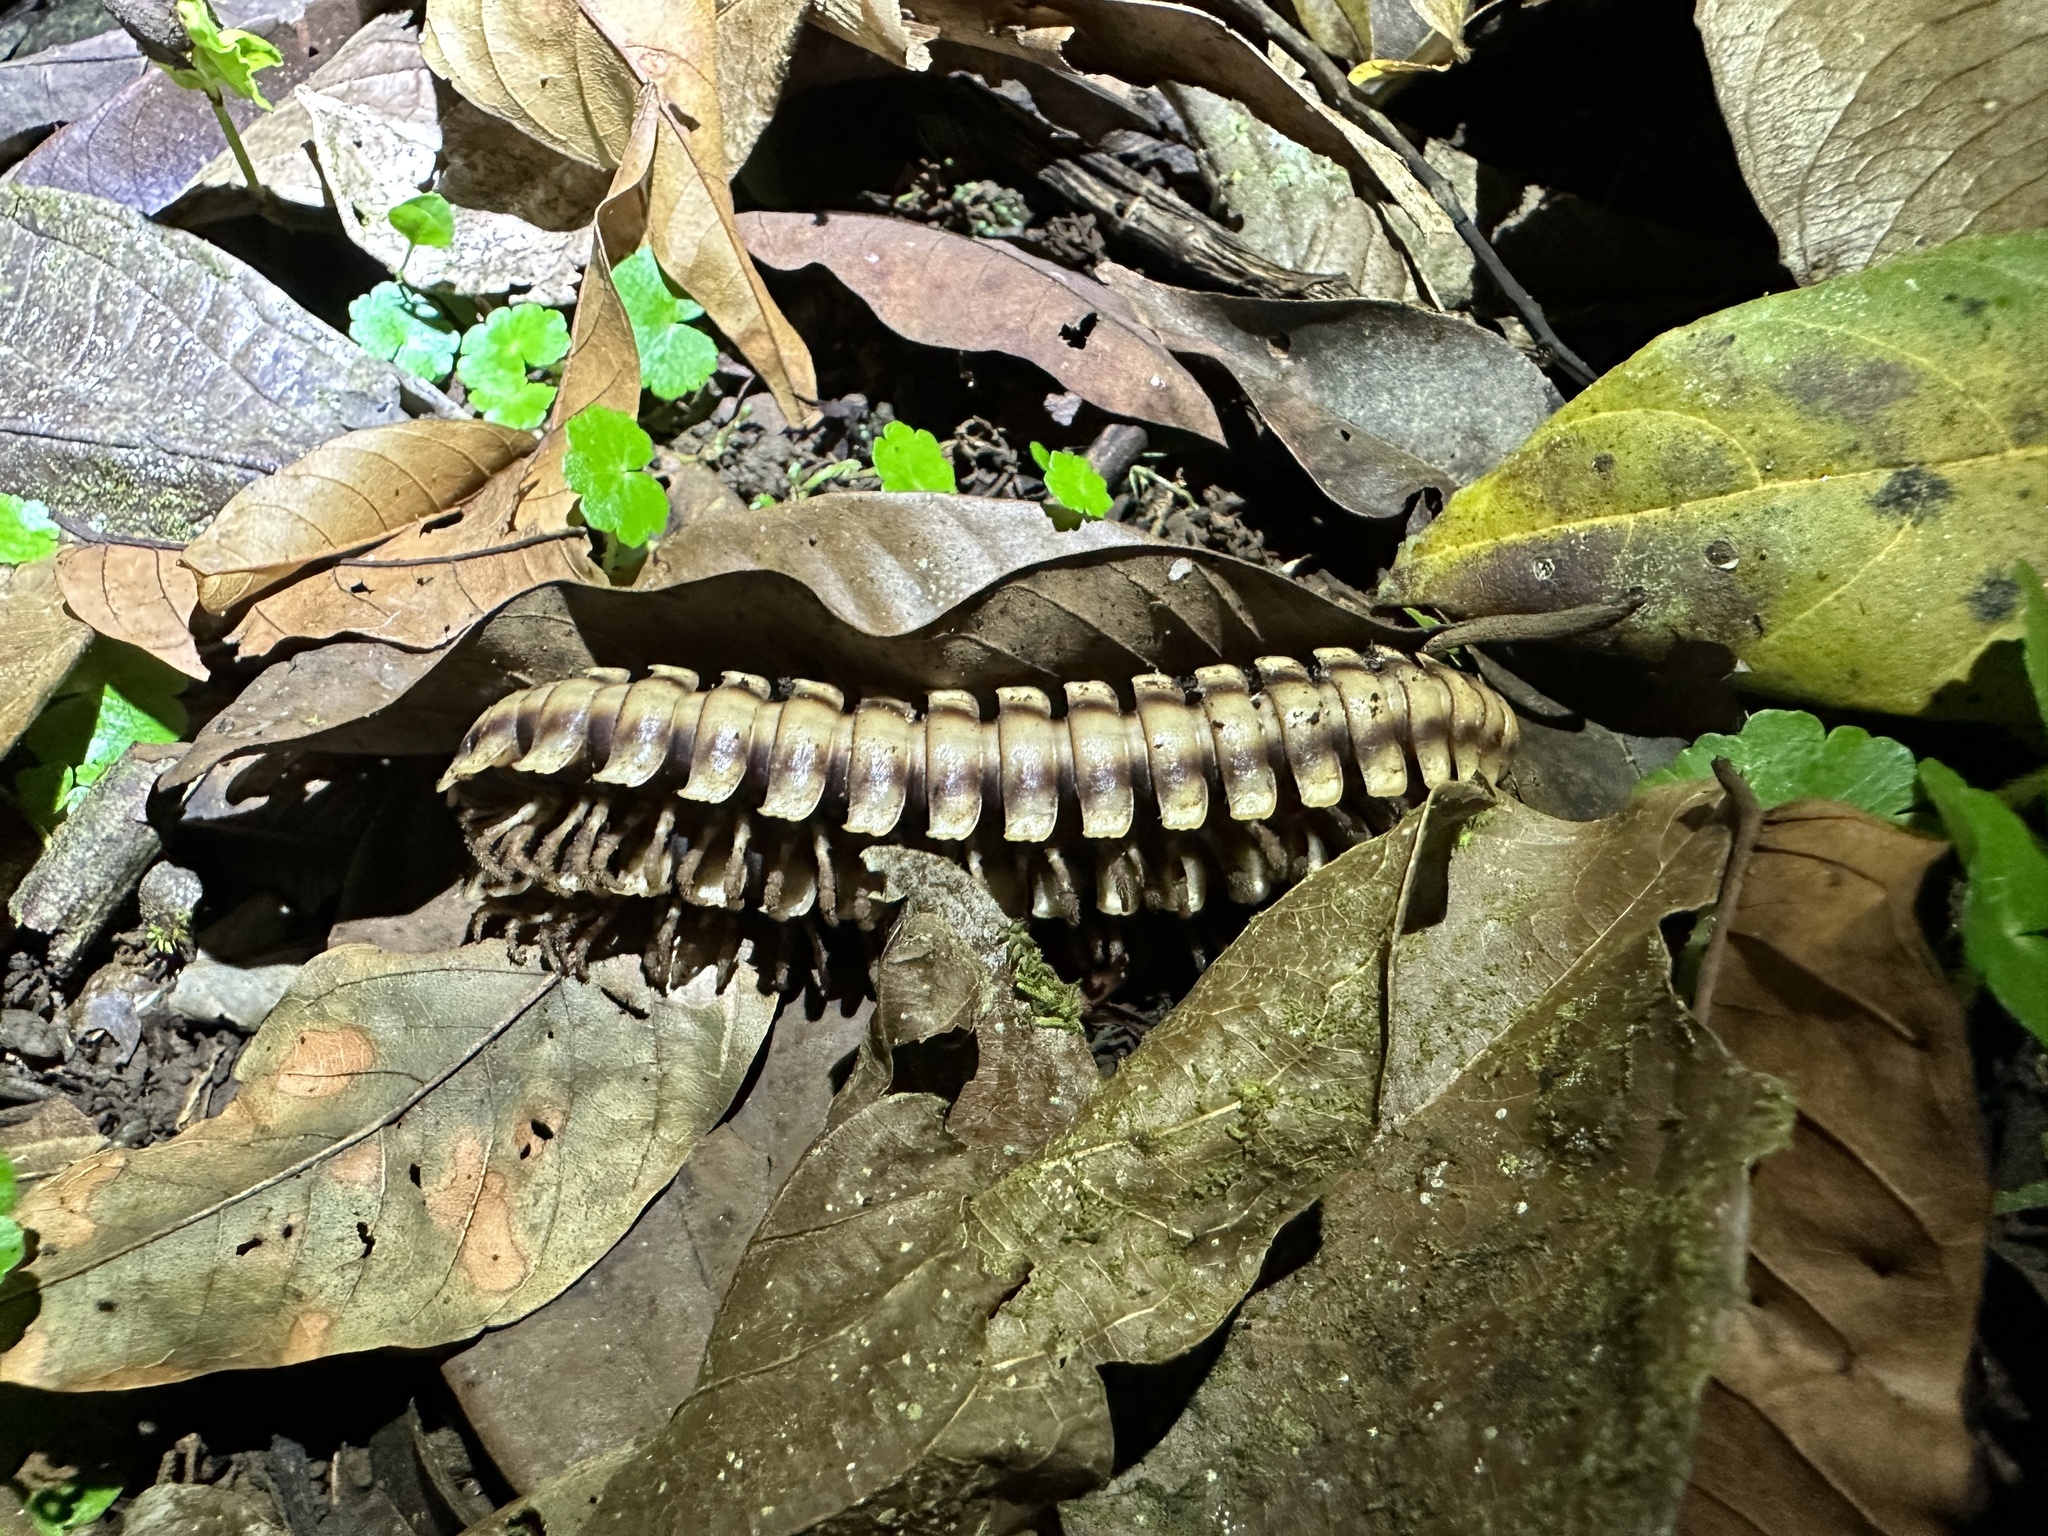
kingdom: Animalia
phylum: Arthropoda
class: Diplopoda
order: Polydesmida
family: Platyrhacidae
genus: Nyssodesmus
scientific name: Nyssodesmus python
